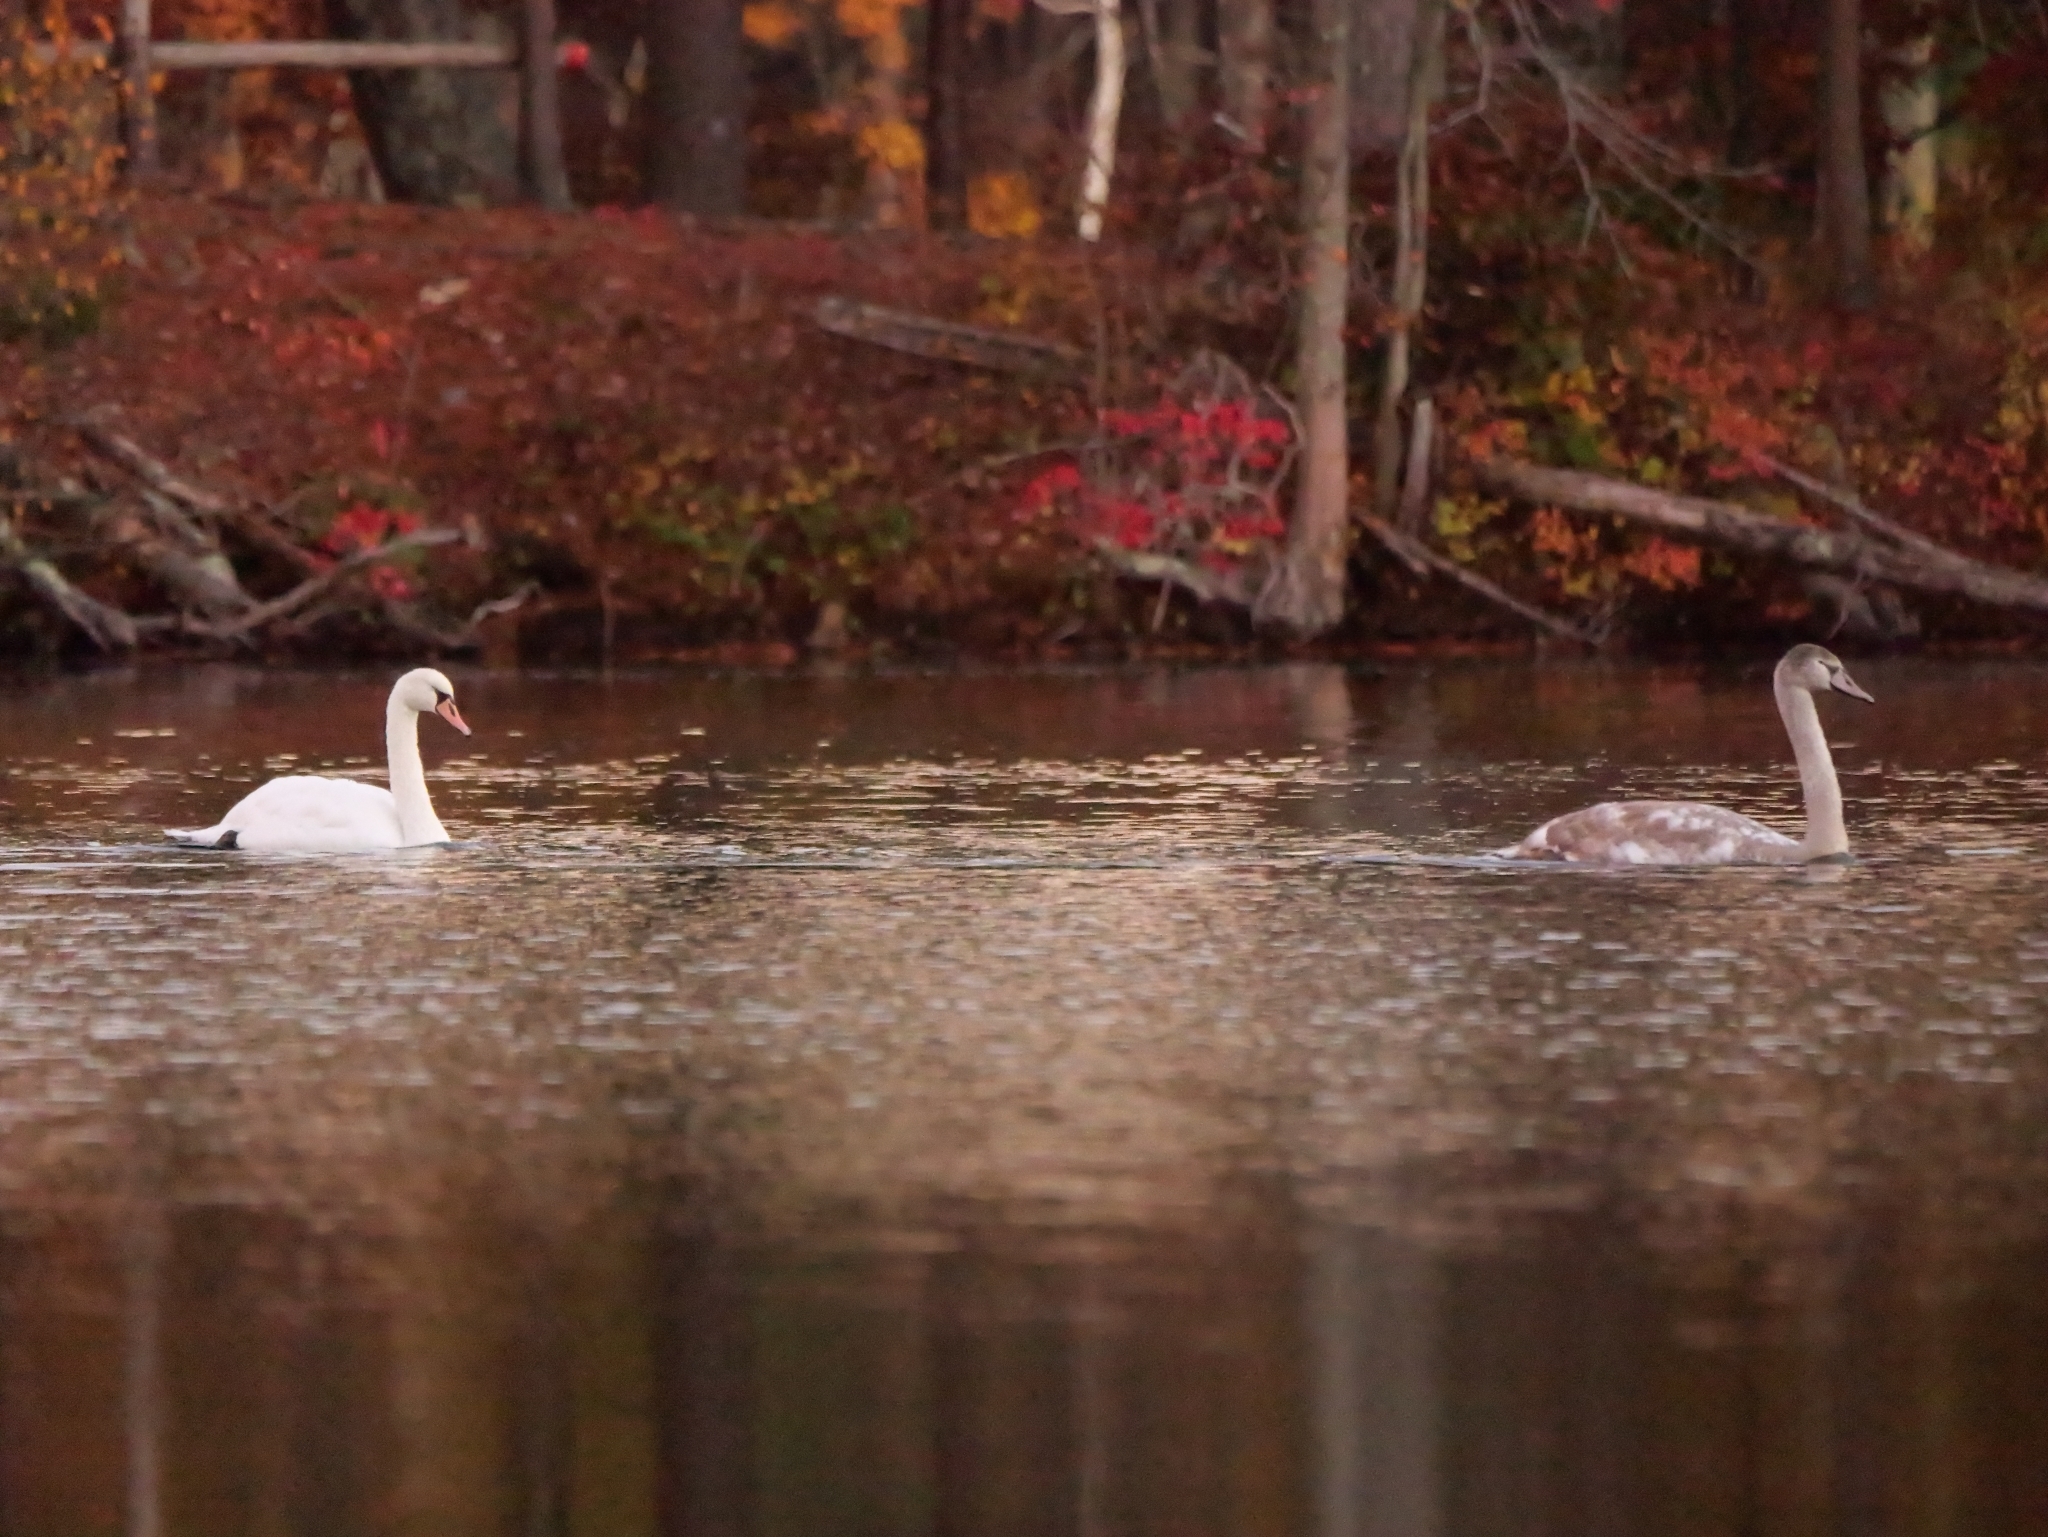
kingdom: Animalia
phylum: Chordata
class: Aves
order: Anseriformes
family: Anatidae
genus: Cygnus
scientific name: Cygnus olor
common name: Mute swan
